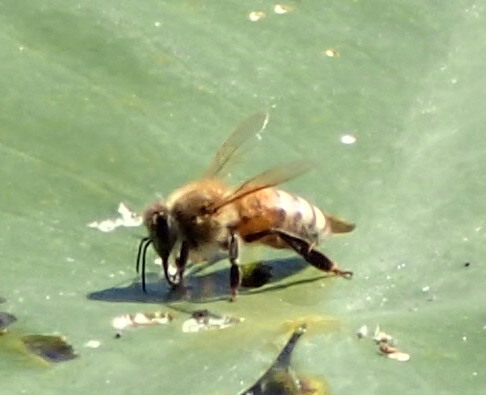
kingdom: Animalia
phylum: Arthropoda
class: Insecta
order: Hymenoptera
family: Apidae
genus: Apis
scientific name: Apis mellifera
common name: Honey bee
